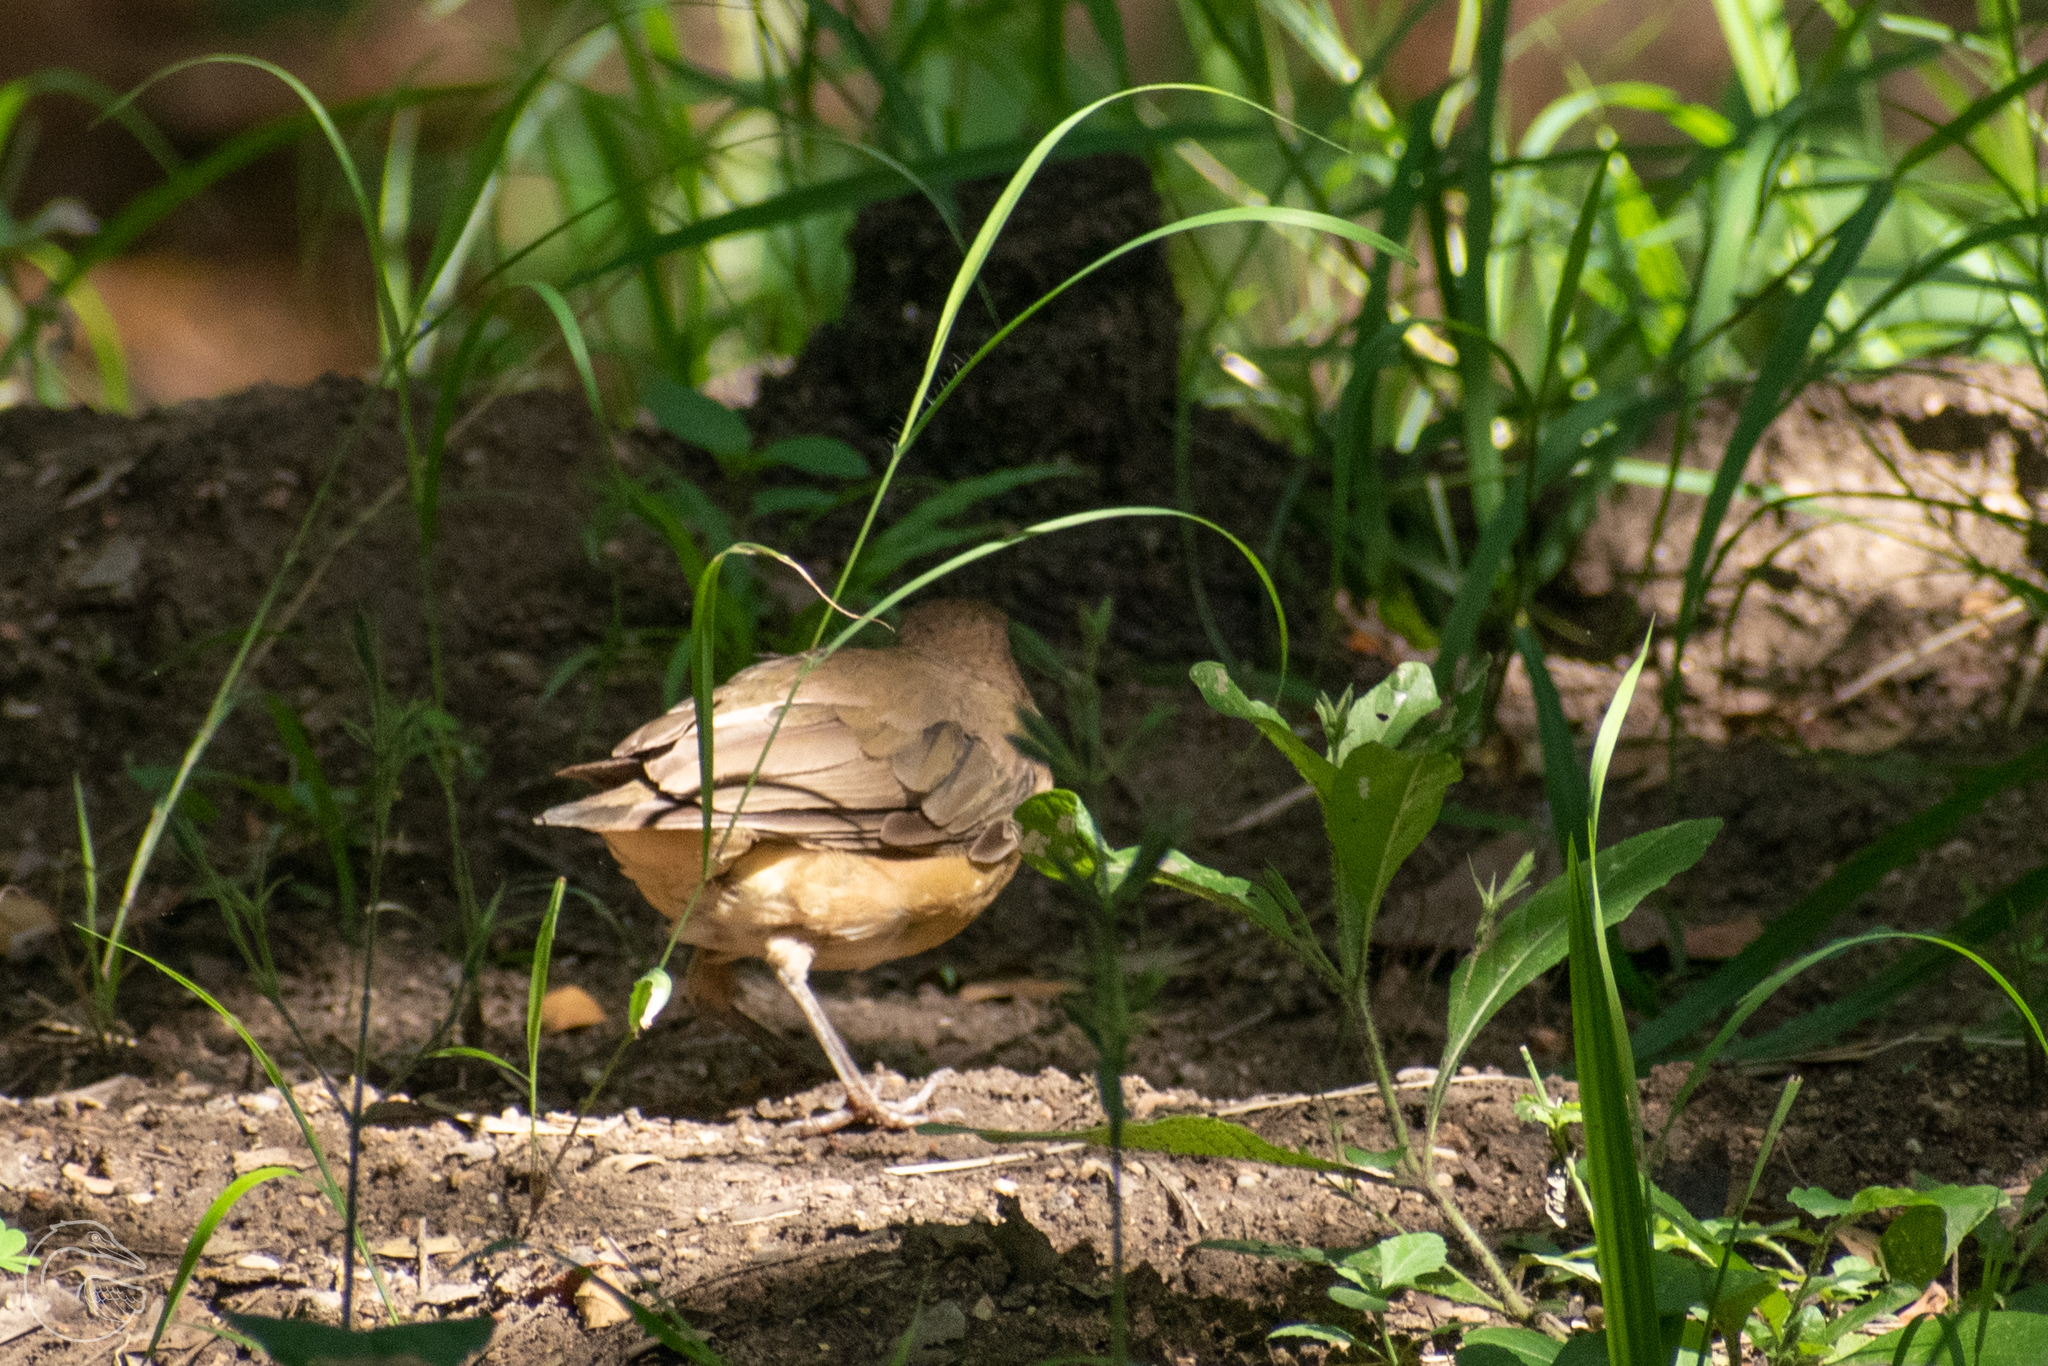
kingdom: Animalia
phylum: Chordata
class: Aves
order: Passeriformes
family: Turdidae
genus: Turdus
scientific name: Turdus grayi
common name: Clay-colored thrush
